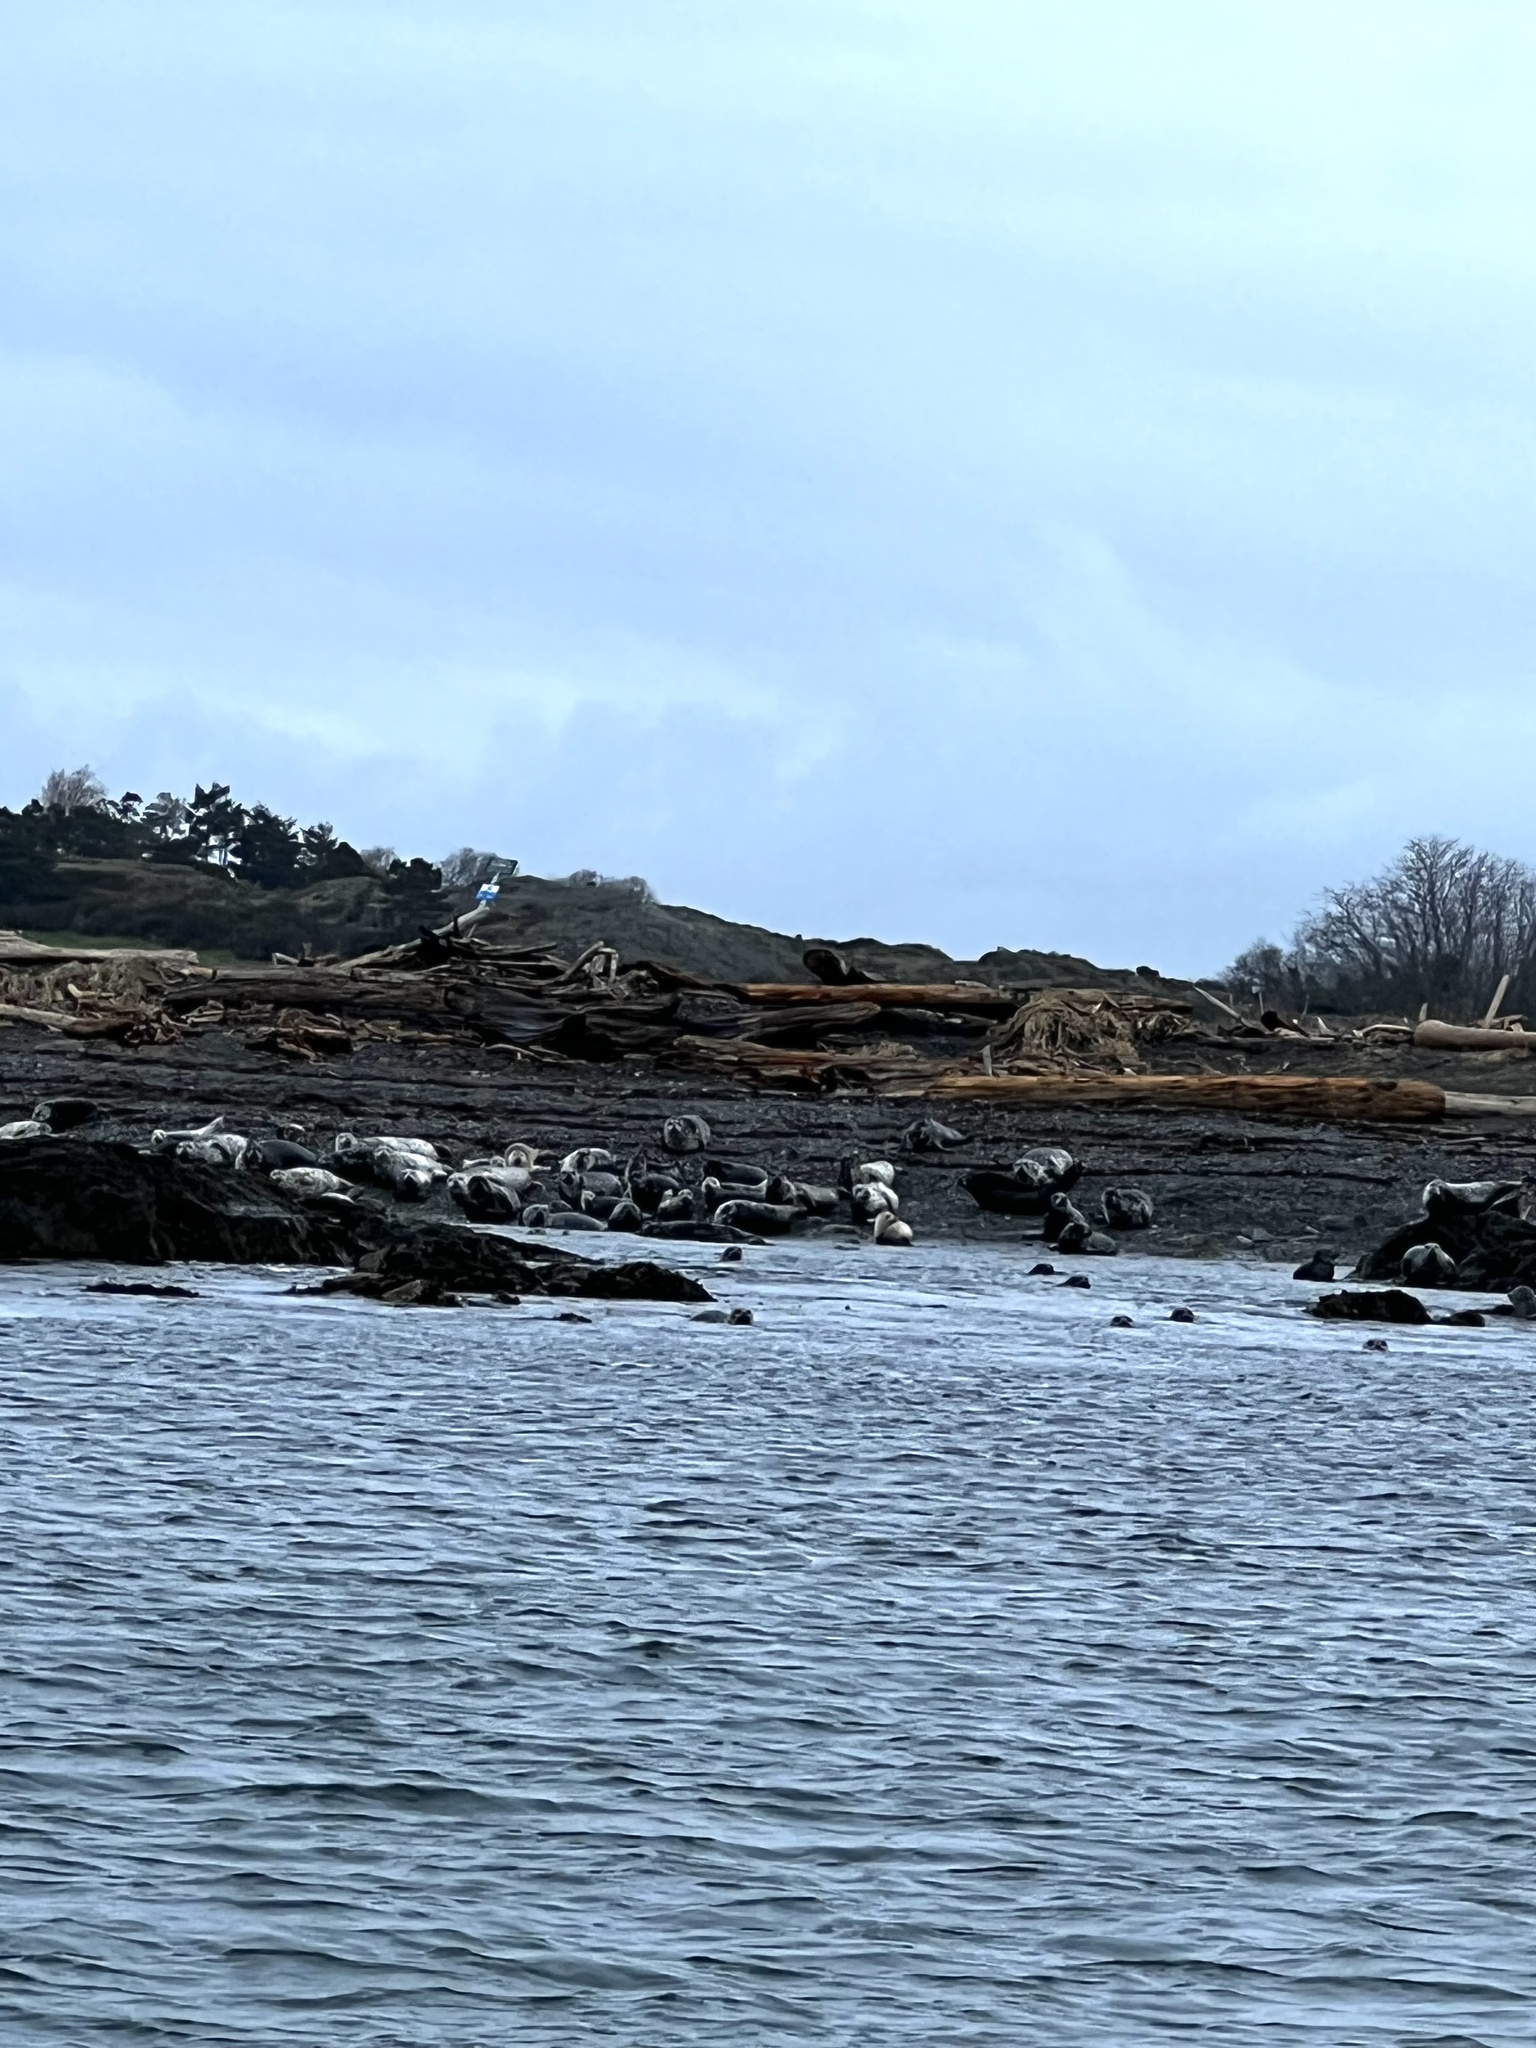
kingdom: Animalia
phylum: Chordata
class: Mammalia
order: Carnivora
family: Phocidae
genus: Phoca
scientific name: Phoca vitulina
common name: Harbor seal
